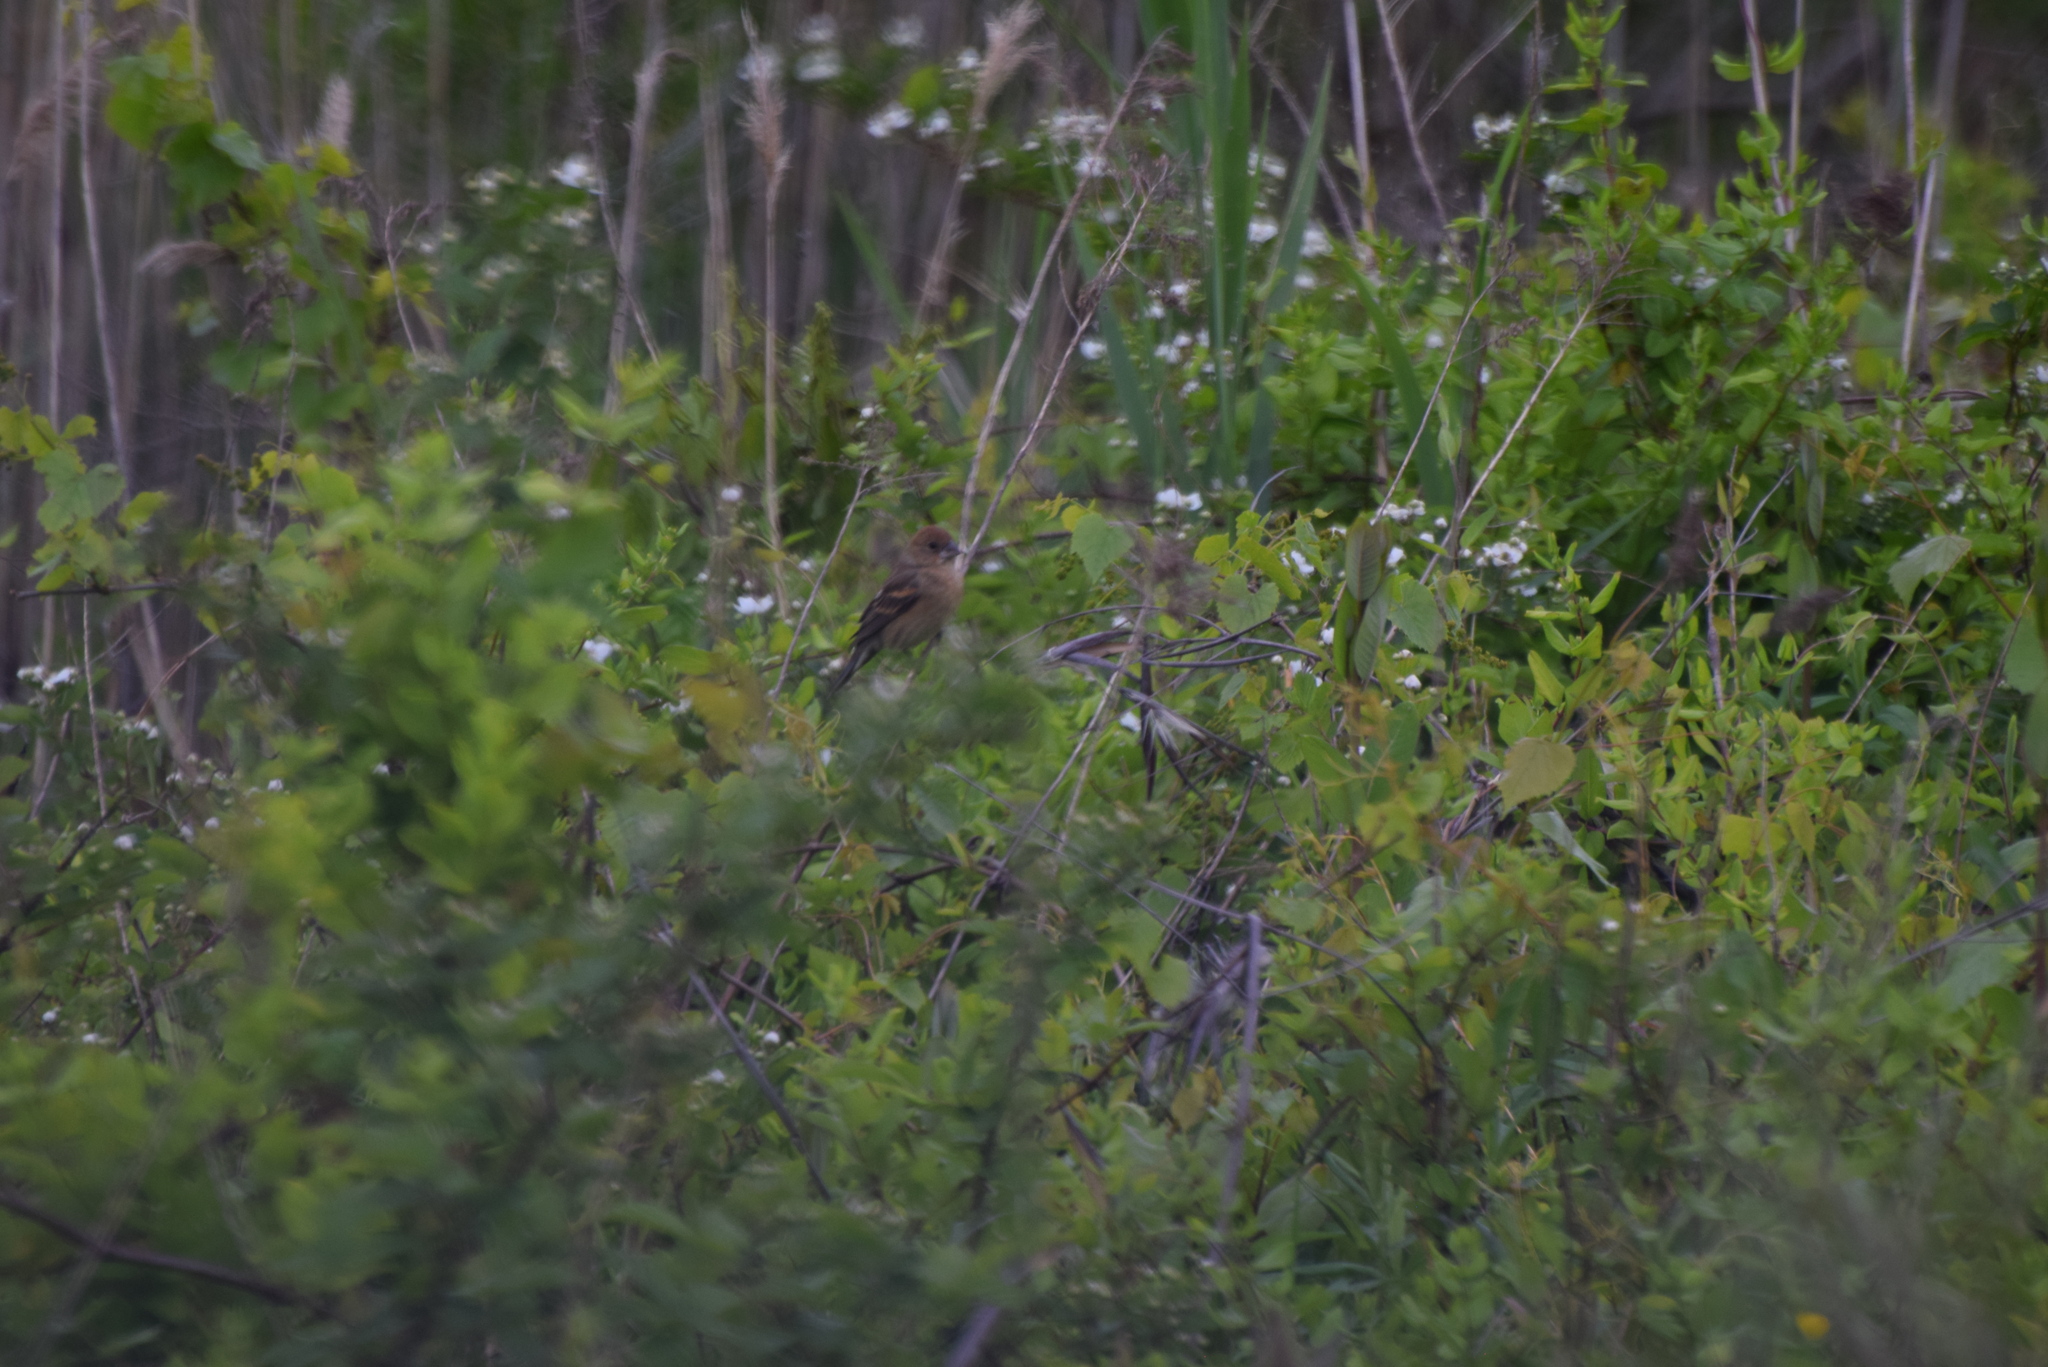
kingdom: Animalia
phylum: Chordata
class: Aves
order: Passeriformes
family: Cardinalidae
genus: Passerina
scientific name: Passerina caerulea
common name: Blue grosbeak
